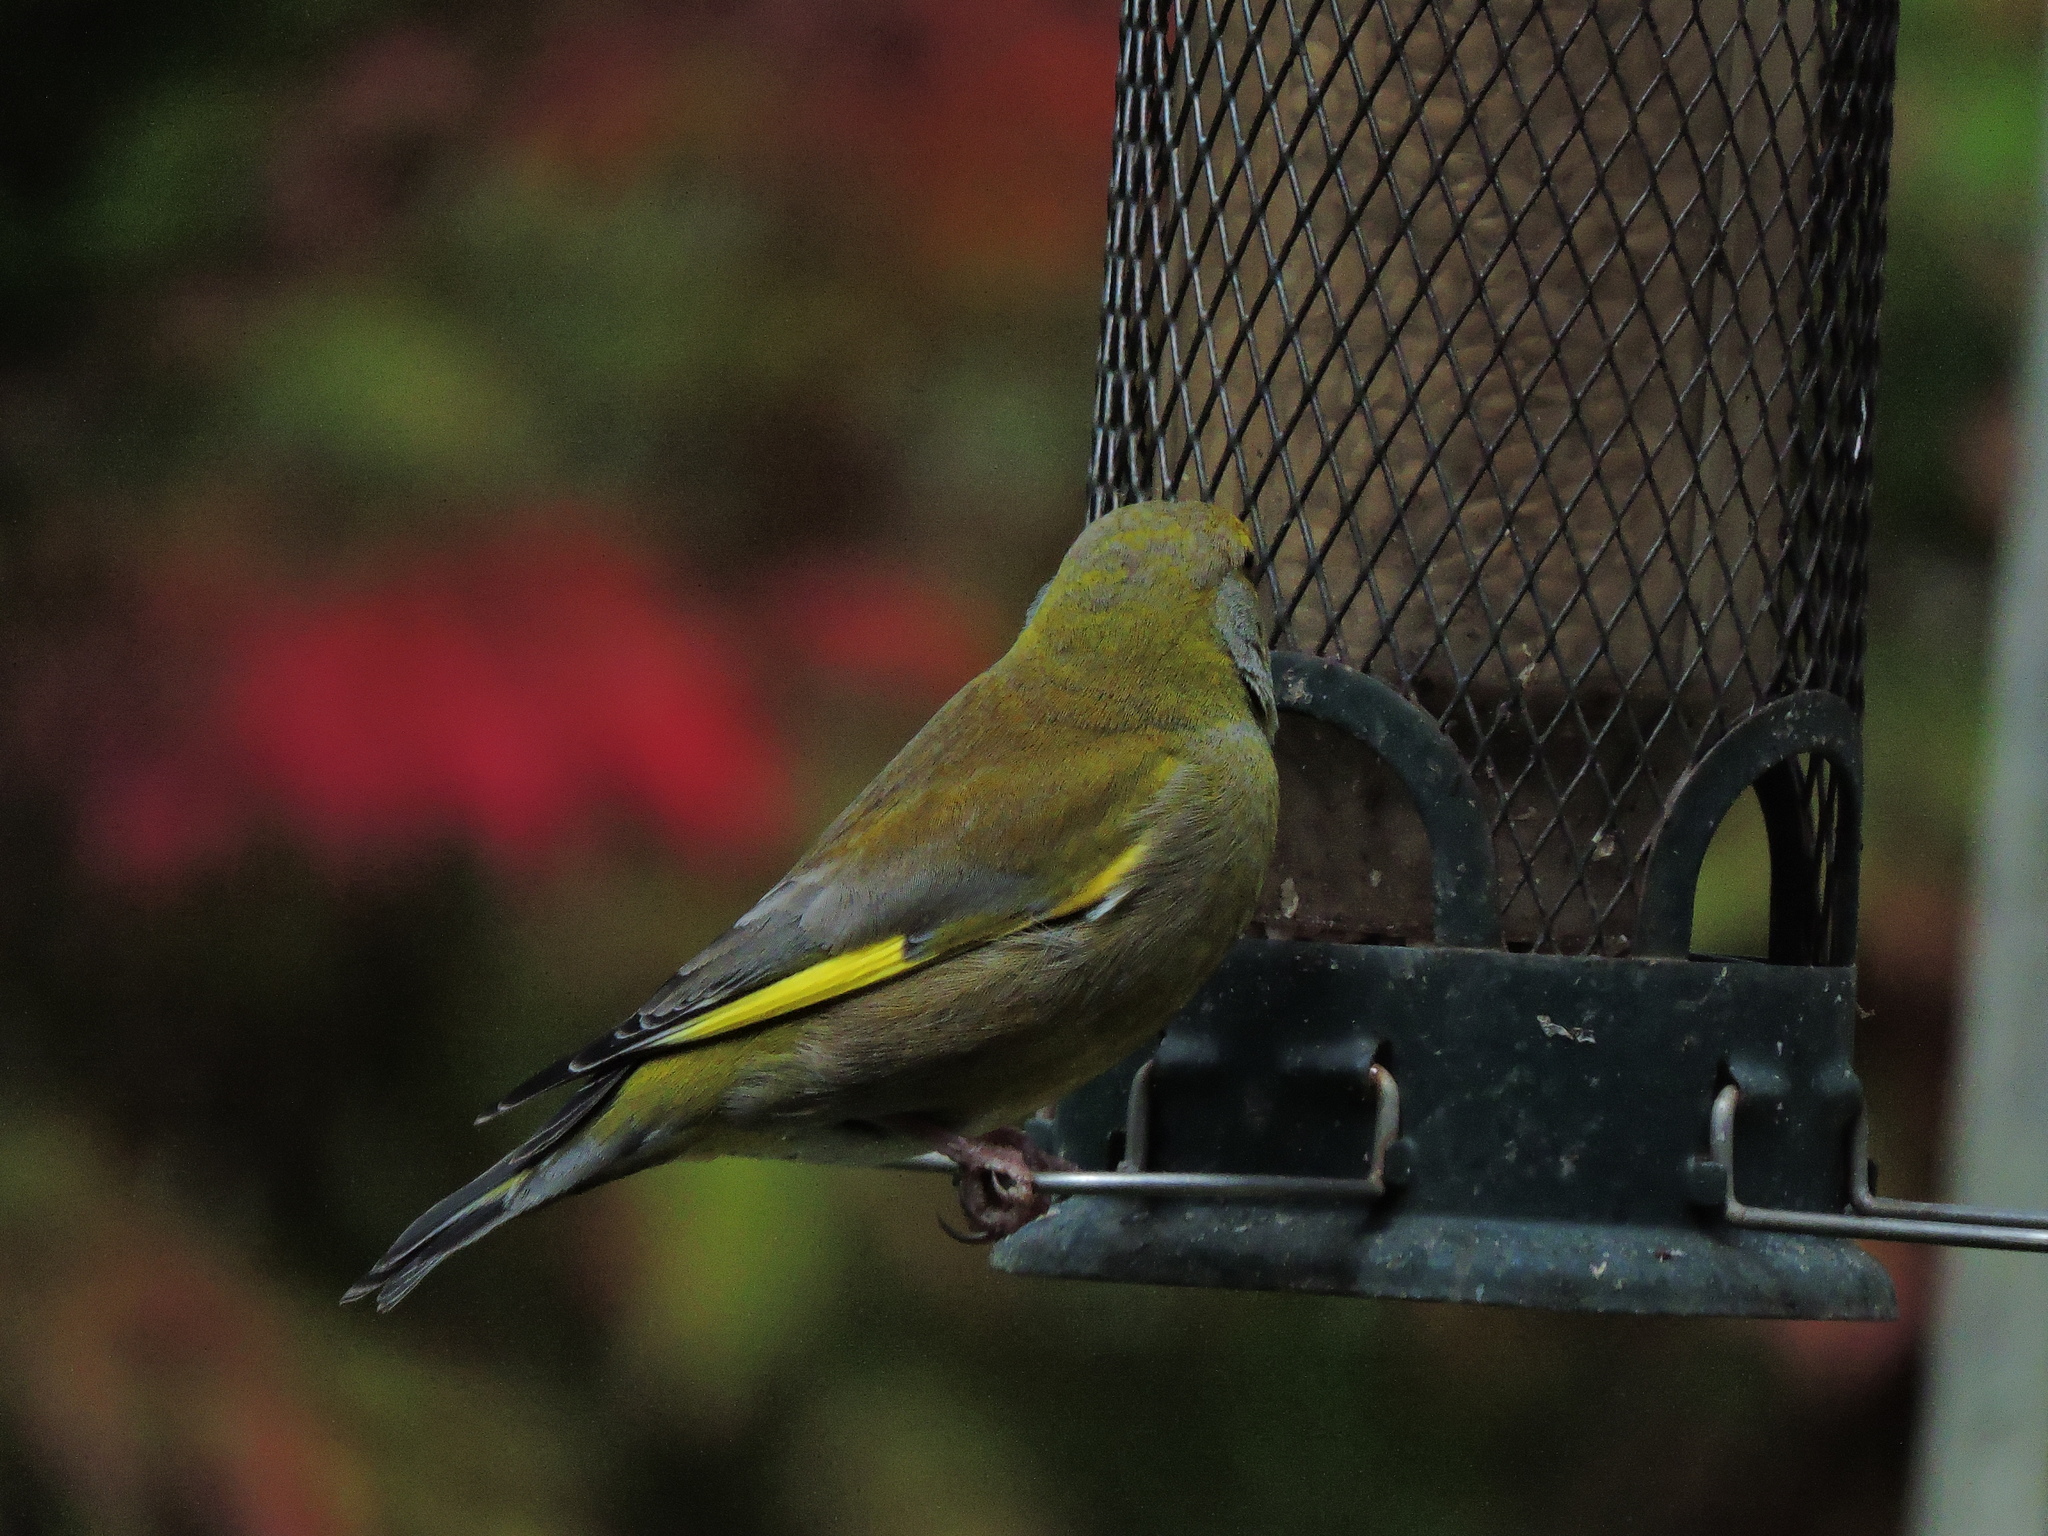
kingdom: Plantae
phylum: Tracheophyta
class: Liliopsida
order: Poales
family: Poaceae
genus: Chloris
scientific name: Chloris chloris
